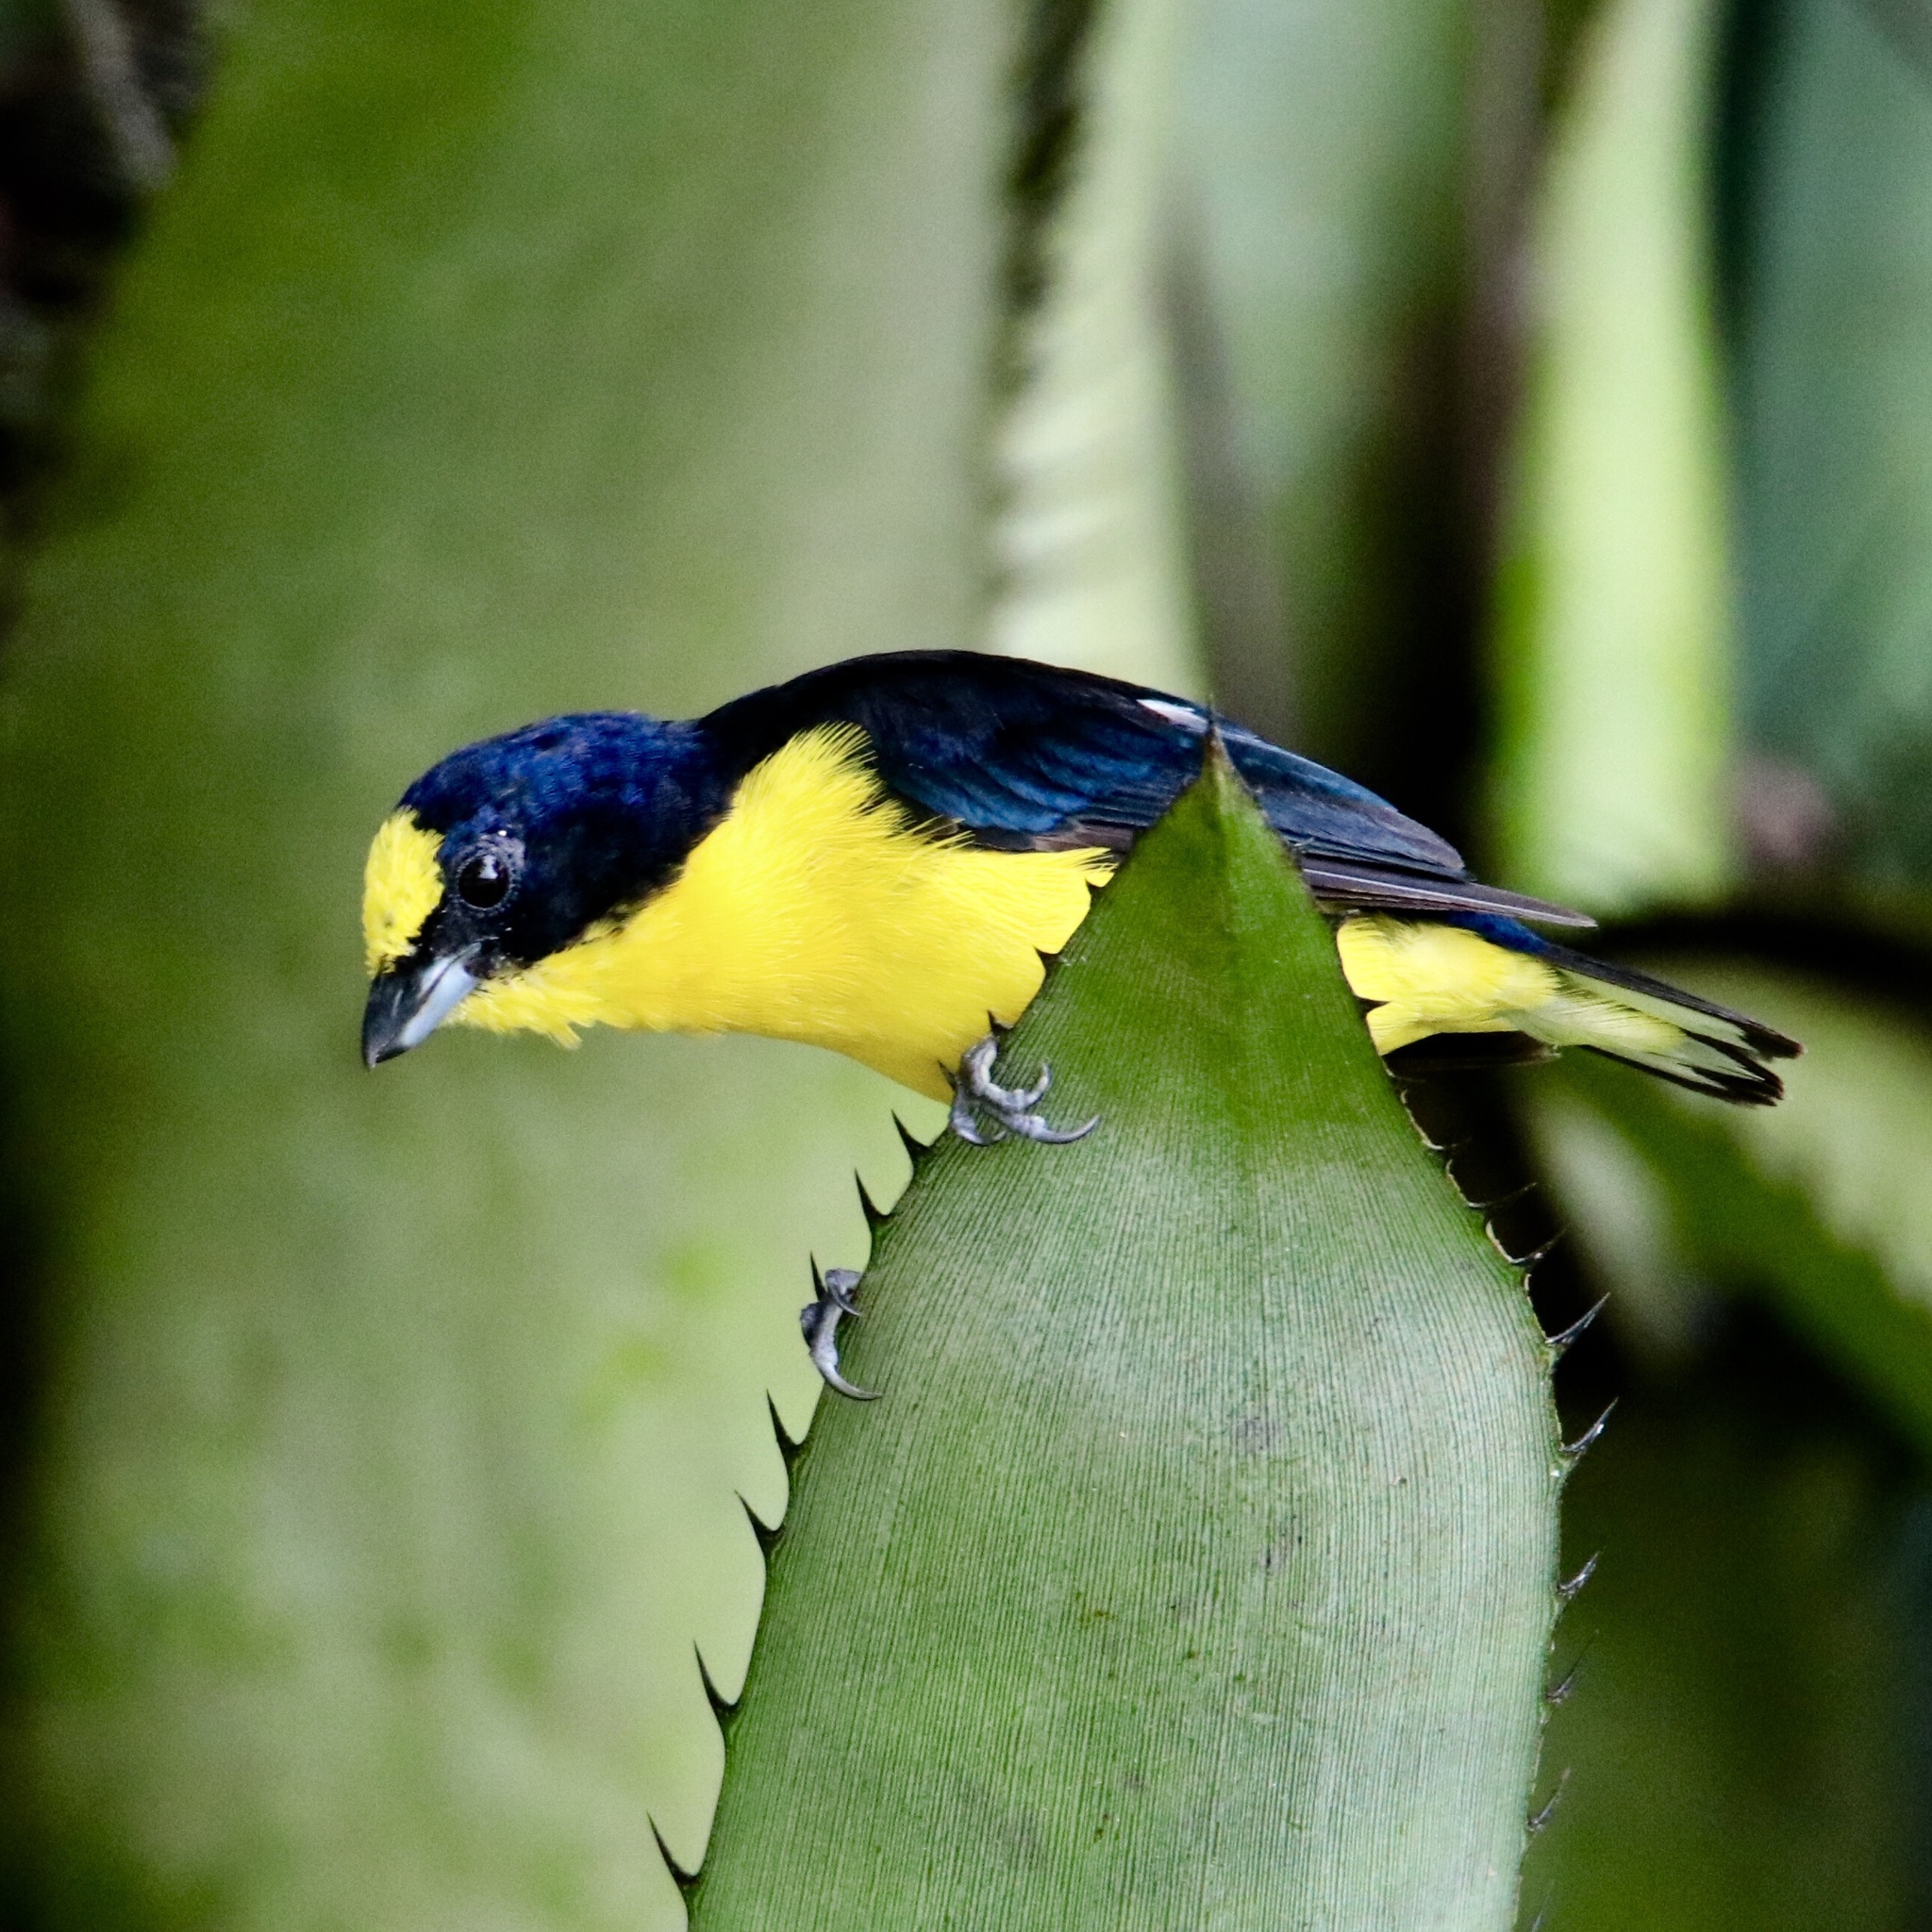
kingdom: Animalia
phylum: Chordata
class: Aves
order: Passeriformes
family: Fringillidae
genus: Euphonia
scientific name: Euphonia laniirostris
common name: Thick-billed euphonia
